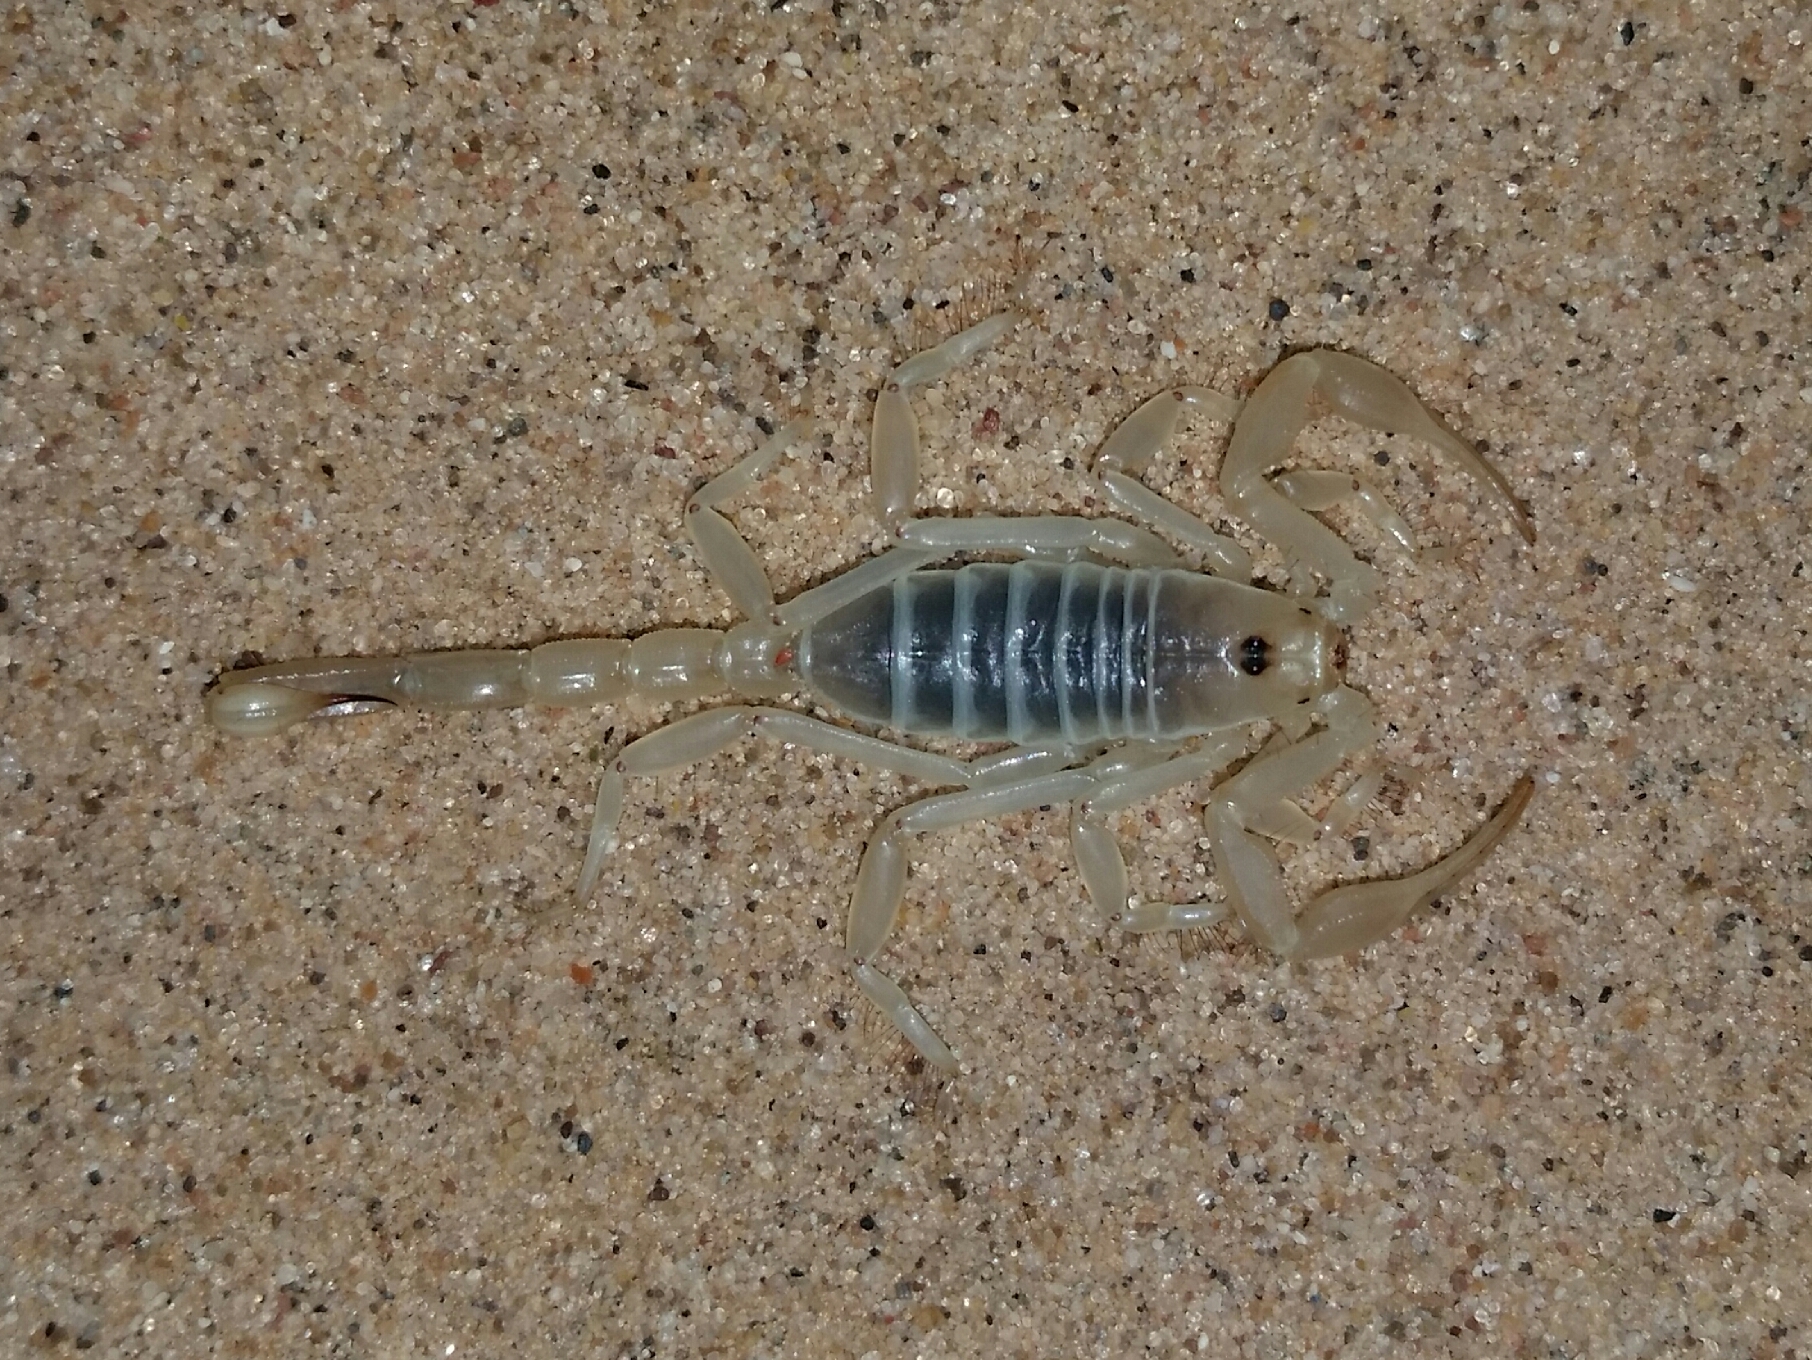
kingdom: Animalia
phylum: Arthropoda
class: Arachnida
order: Scorpiones
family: Vaejovidae
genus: Paruroctonus
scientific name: Paruroctonus xanthus
